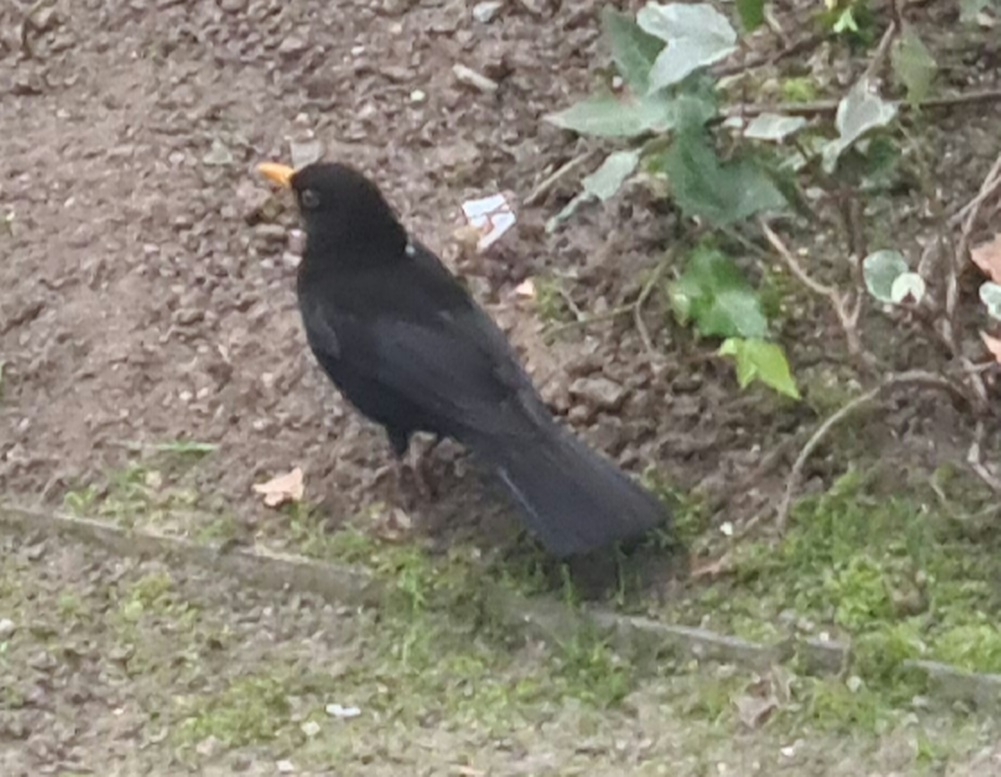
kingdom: Animalia
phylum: Chordata
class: Aves
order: Passeriformes
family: Turdidae
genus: Turdus
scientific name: Turdus merula
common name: Common blackbird
